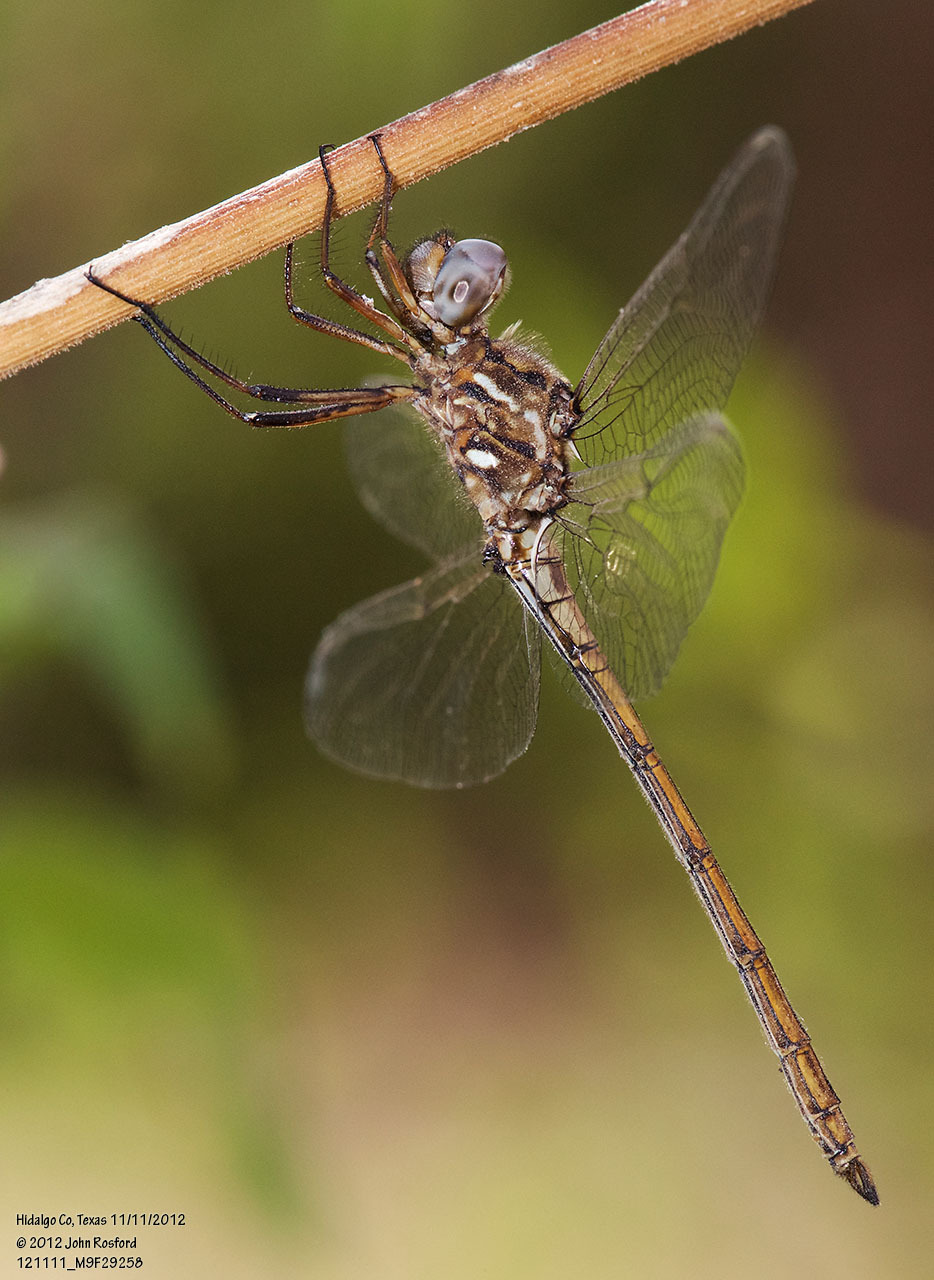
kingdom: Animalia
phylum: Arthropoda
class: Insecta
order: Odonata
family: Libellulidae
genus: Macrothemis
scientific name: Macrothemis inacuta
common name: Straw-colored sylph
